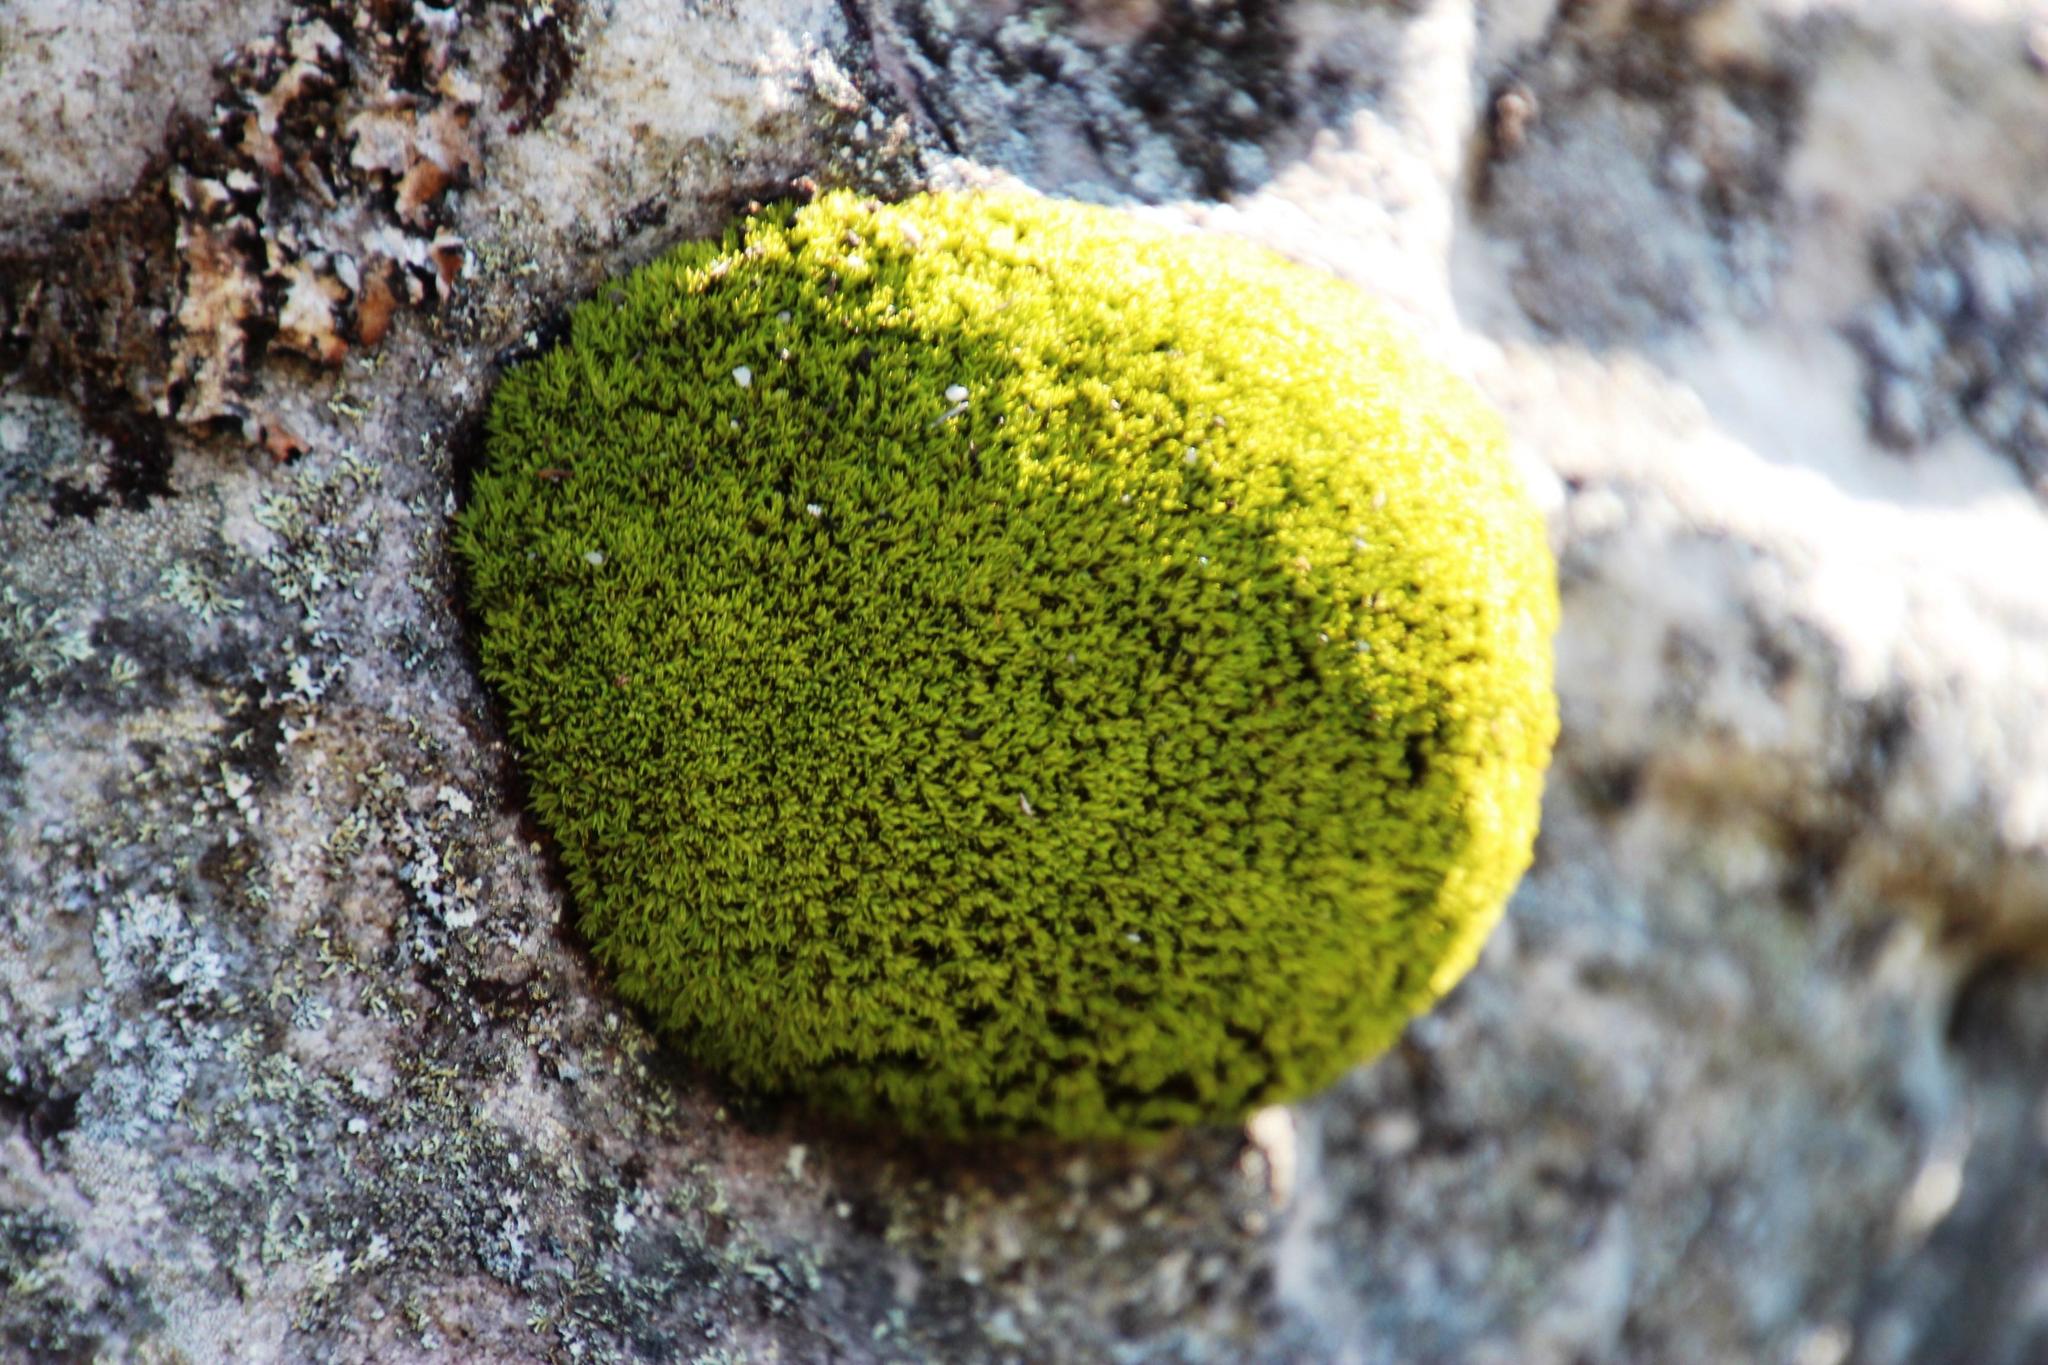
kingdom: Plantae
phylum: Bryophyta
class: Bryopsida
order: Dicranales
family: Hypodontiaceae
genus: Hypodontium
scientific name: Hypodontium pomiforme
